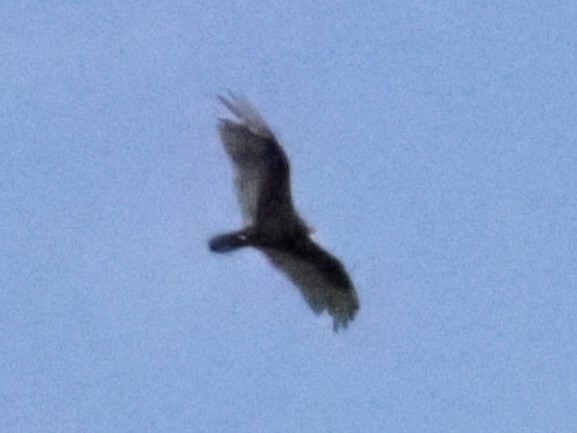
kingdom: Animalia
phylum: Chordata
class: Aves
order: Accipitriformes
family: Cathartidae
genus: Cathartes
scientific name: Cathartes aura
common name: Turkey vulture
